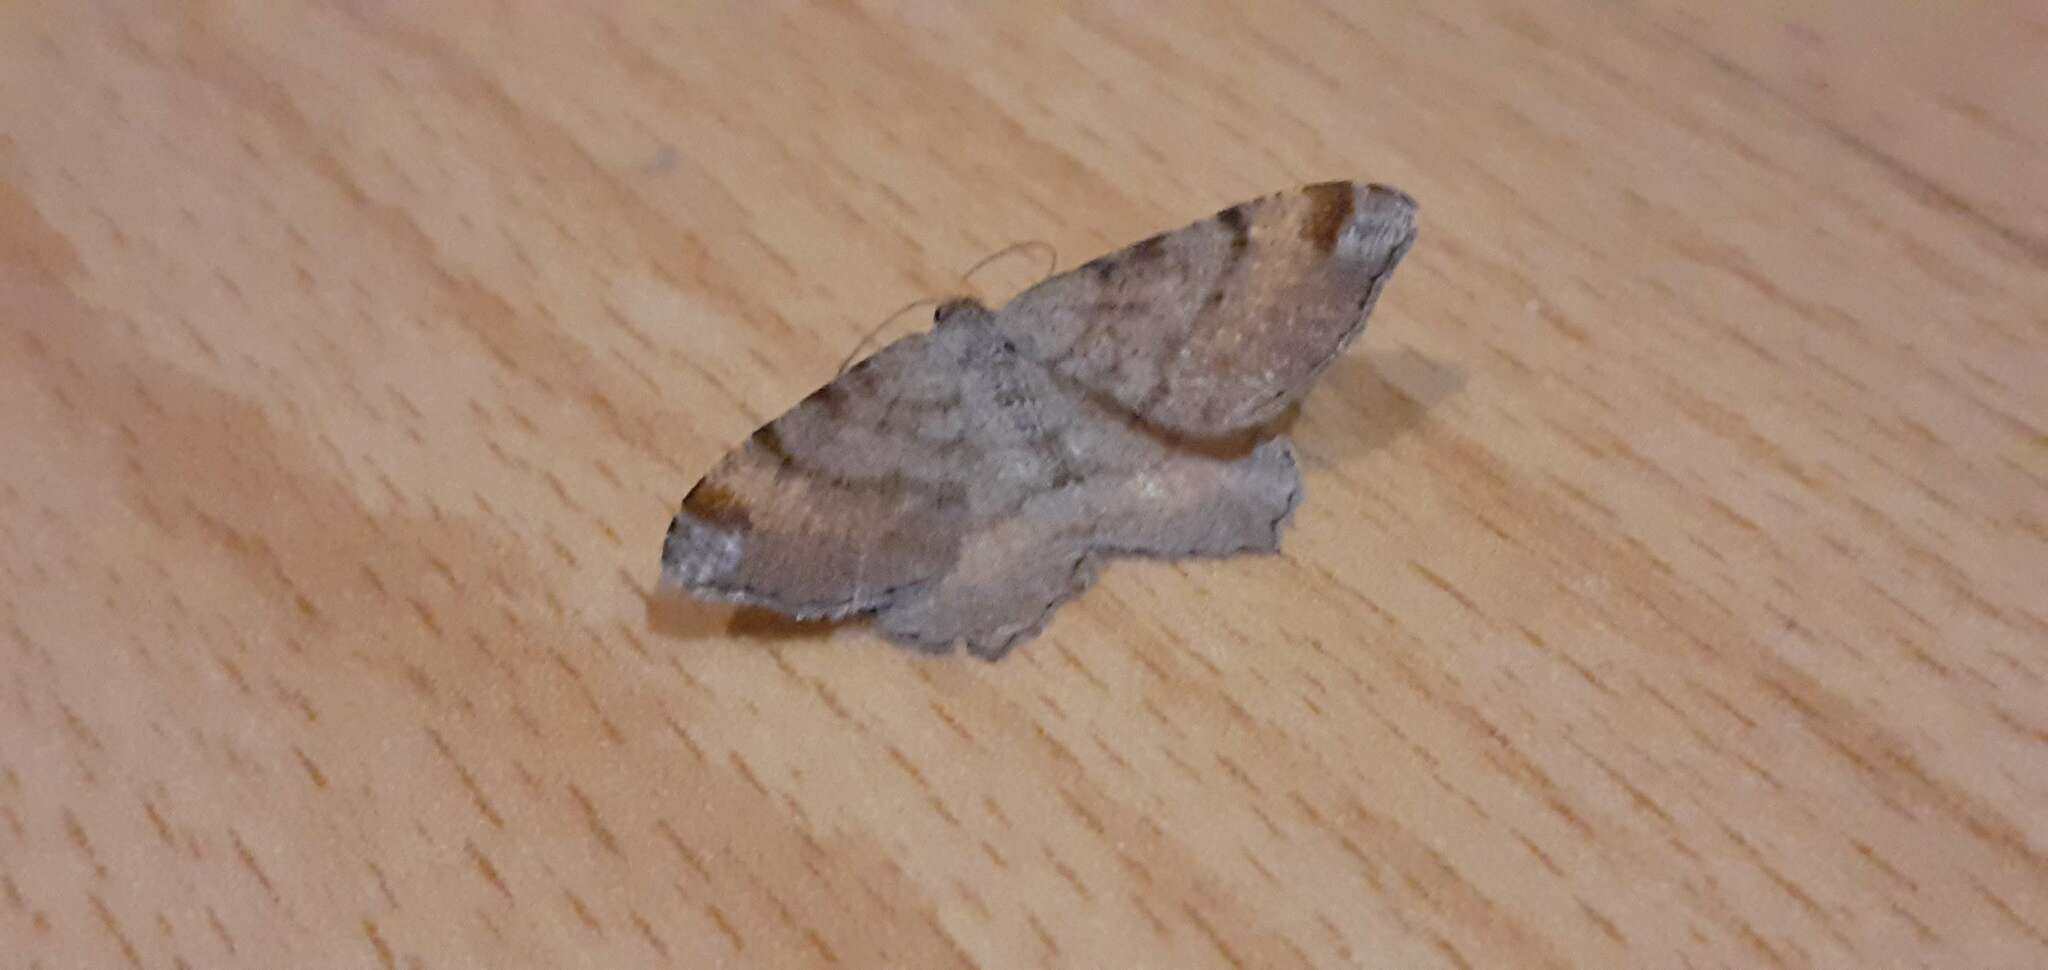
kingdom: Animalia
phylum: Arthropoda
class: Insecta
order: Lepidoptera
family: Geometridae
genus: Macaria
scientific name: Macaria liturata
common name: Tawny-barred angle
